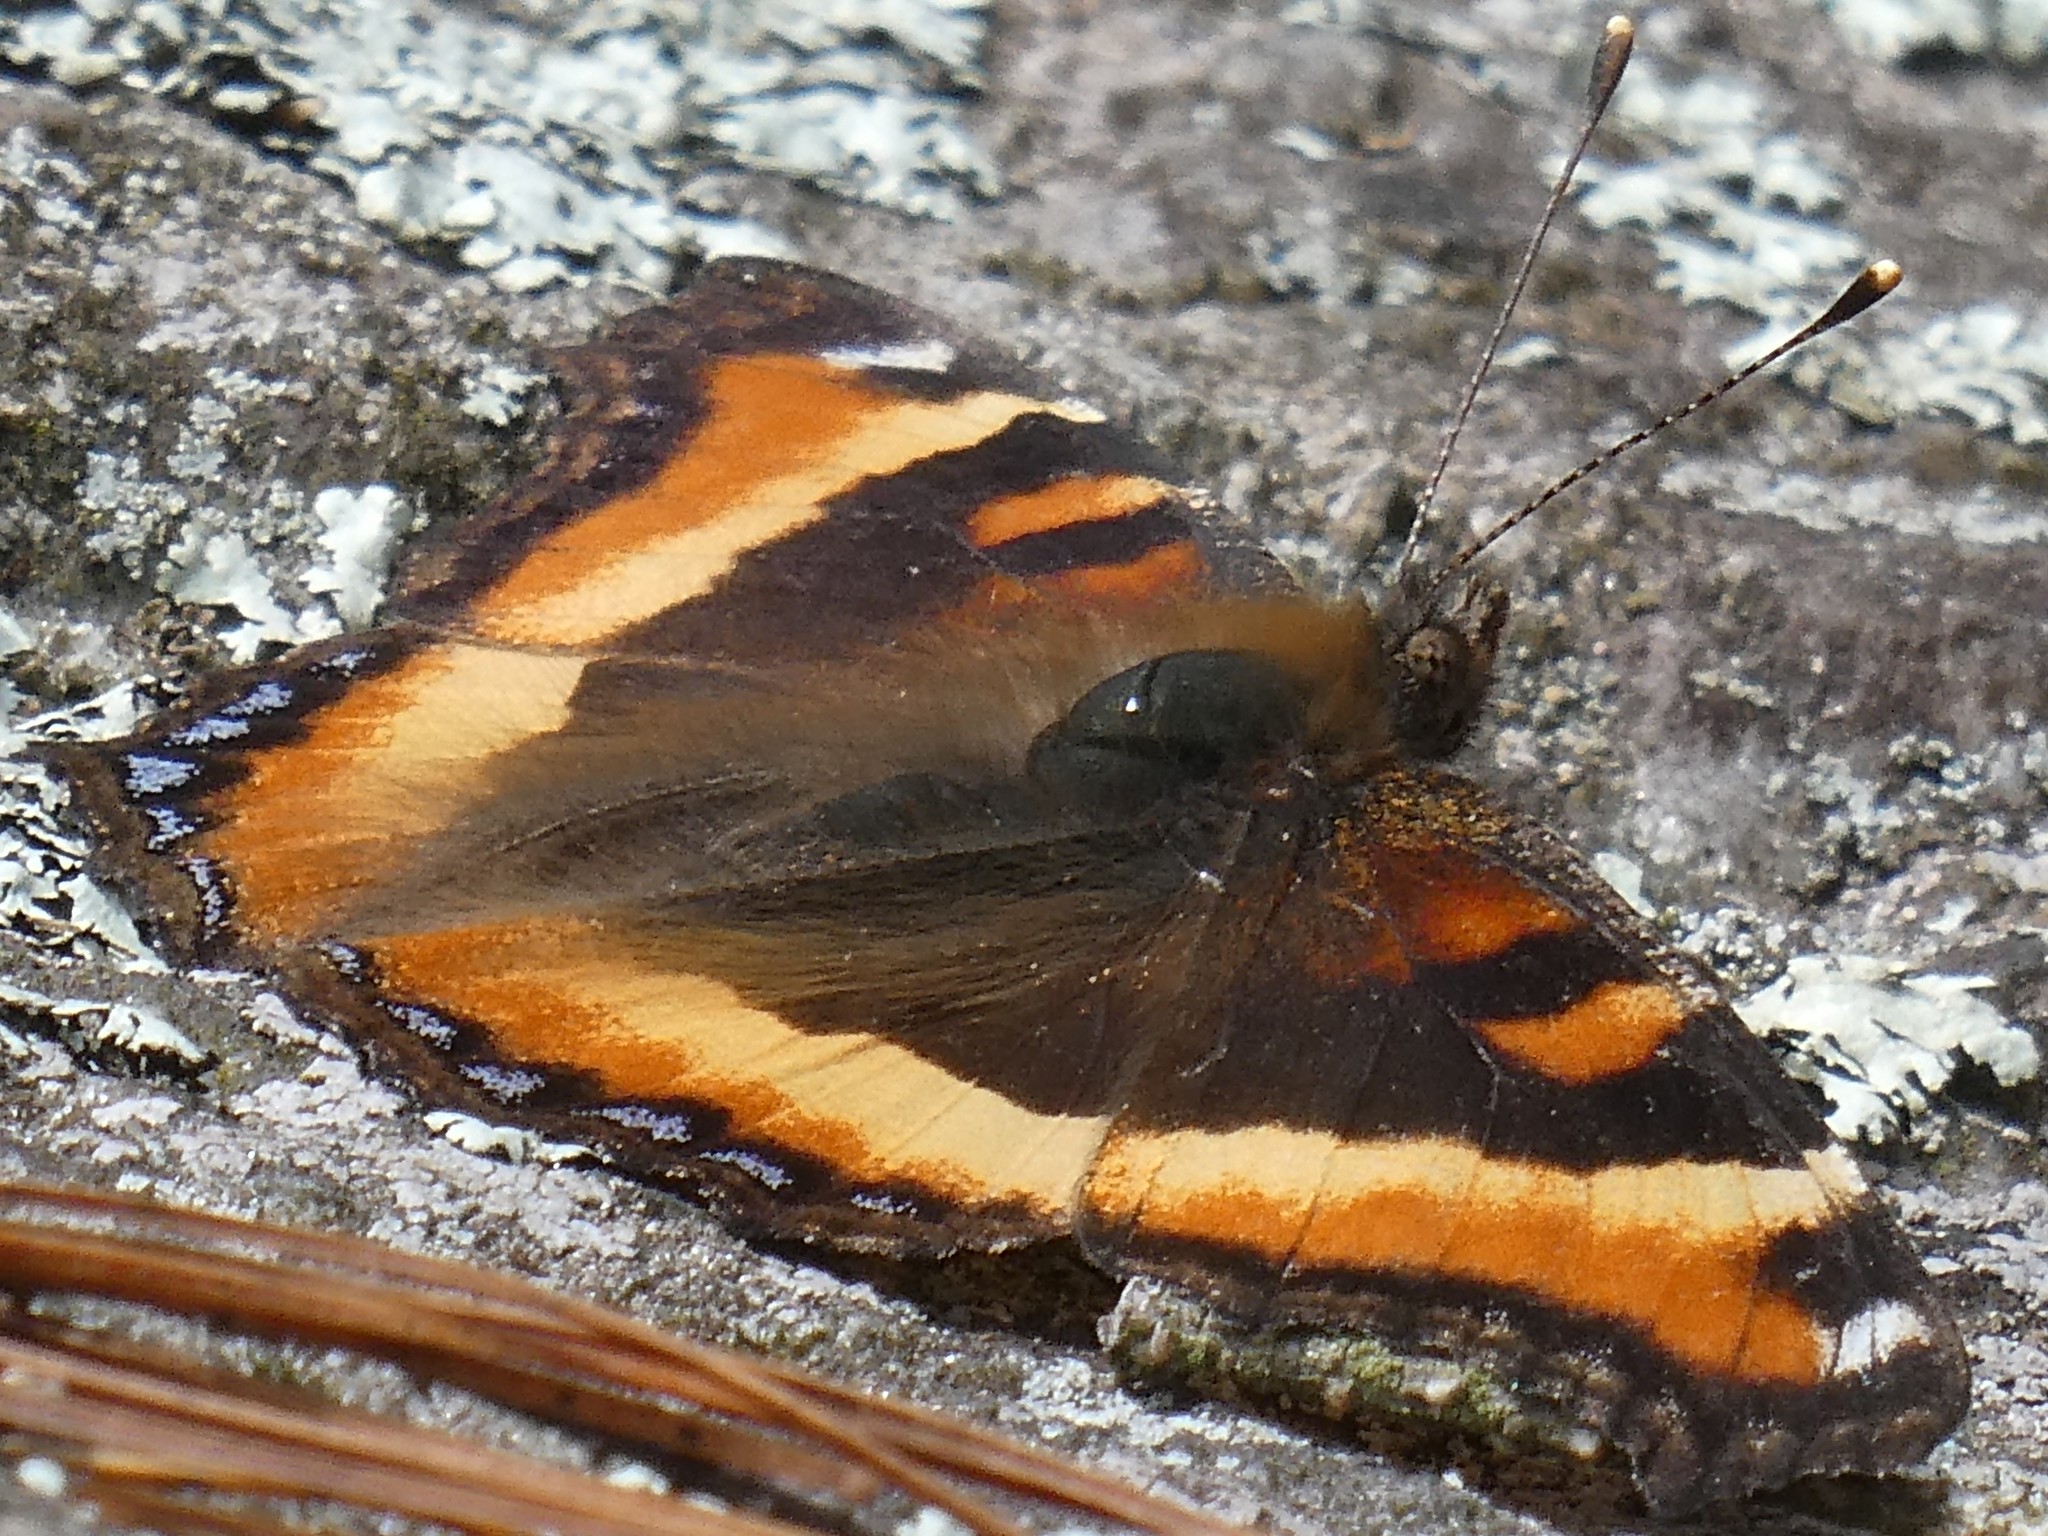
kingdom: Animalia
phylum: Arthropoda
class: Insecta
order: Lepidoptera
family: Nymphalidae
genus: Aglais
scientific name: Aglais milberti
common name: Milbert's tortoiseshell
